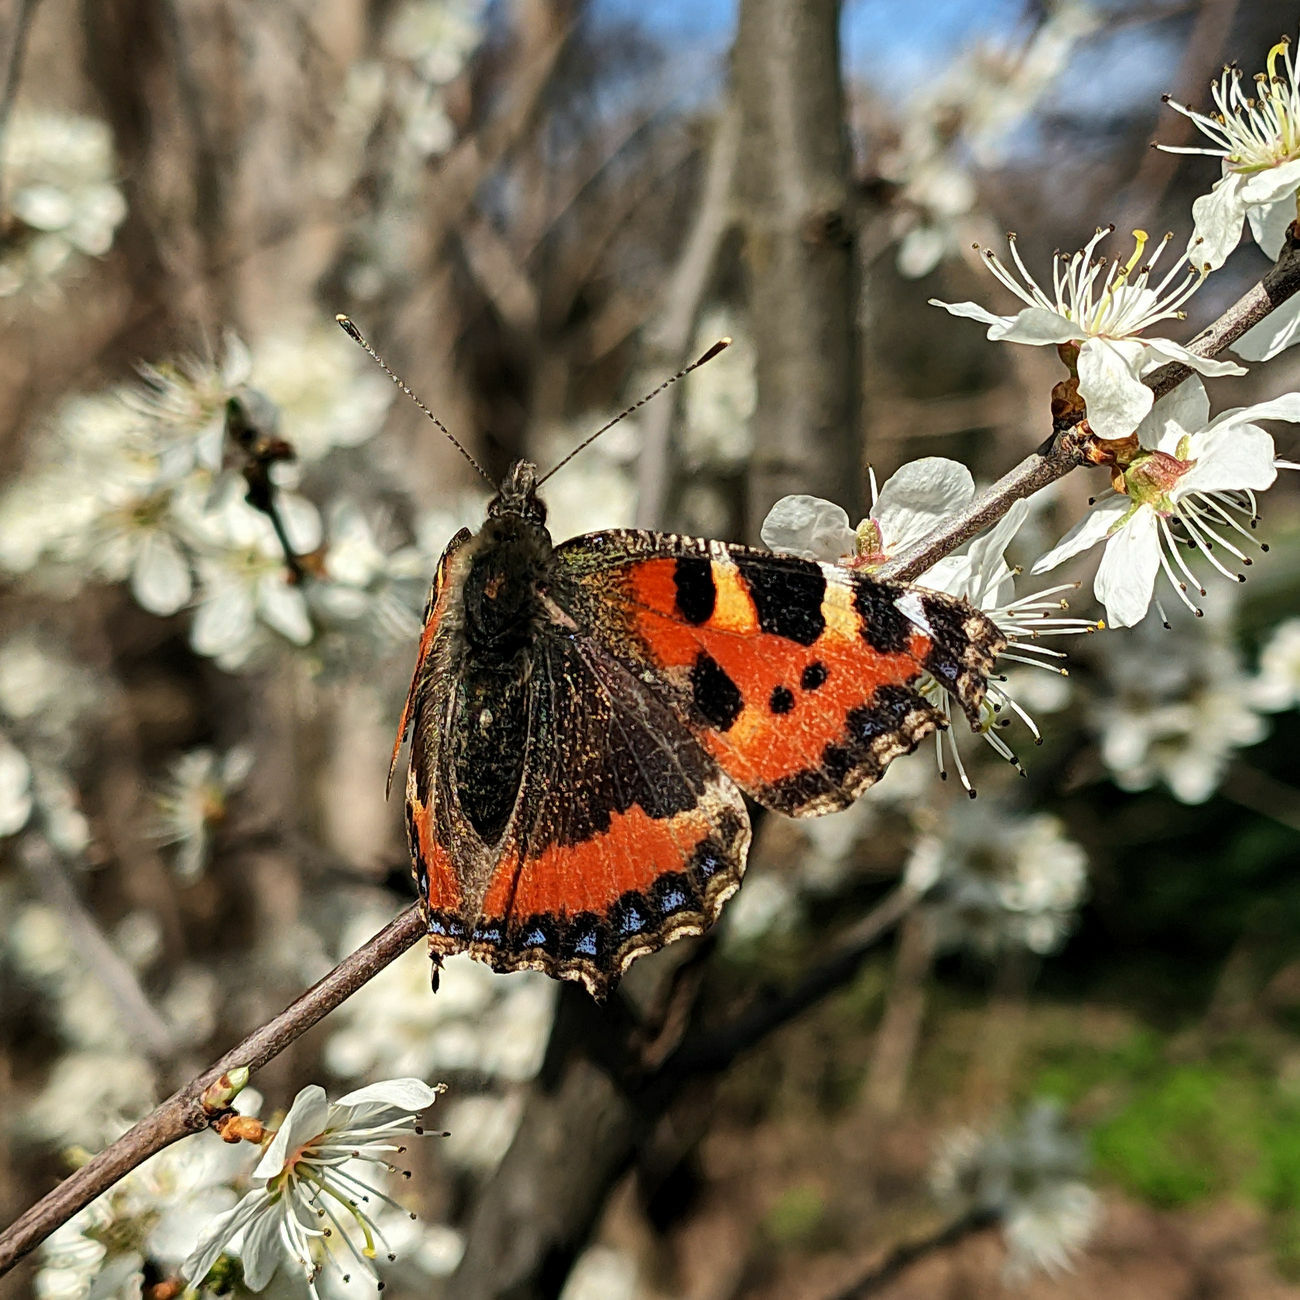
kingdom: Animalia
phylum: Arthropoda
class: Insecta
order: Lepidoptera
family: Nymphalidae
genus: Aglais
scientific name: Aglais urticae
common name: Small tortoiseshell
